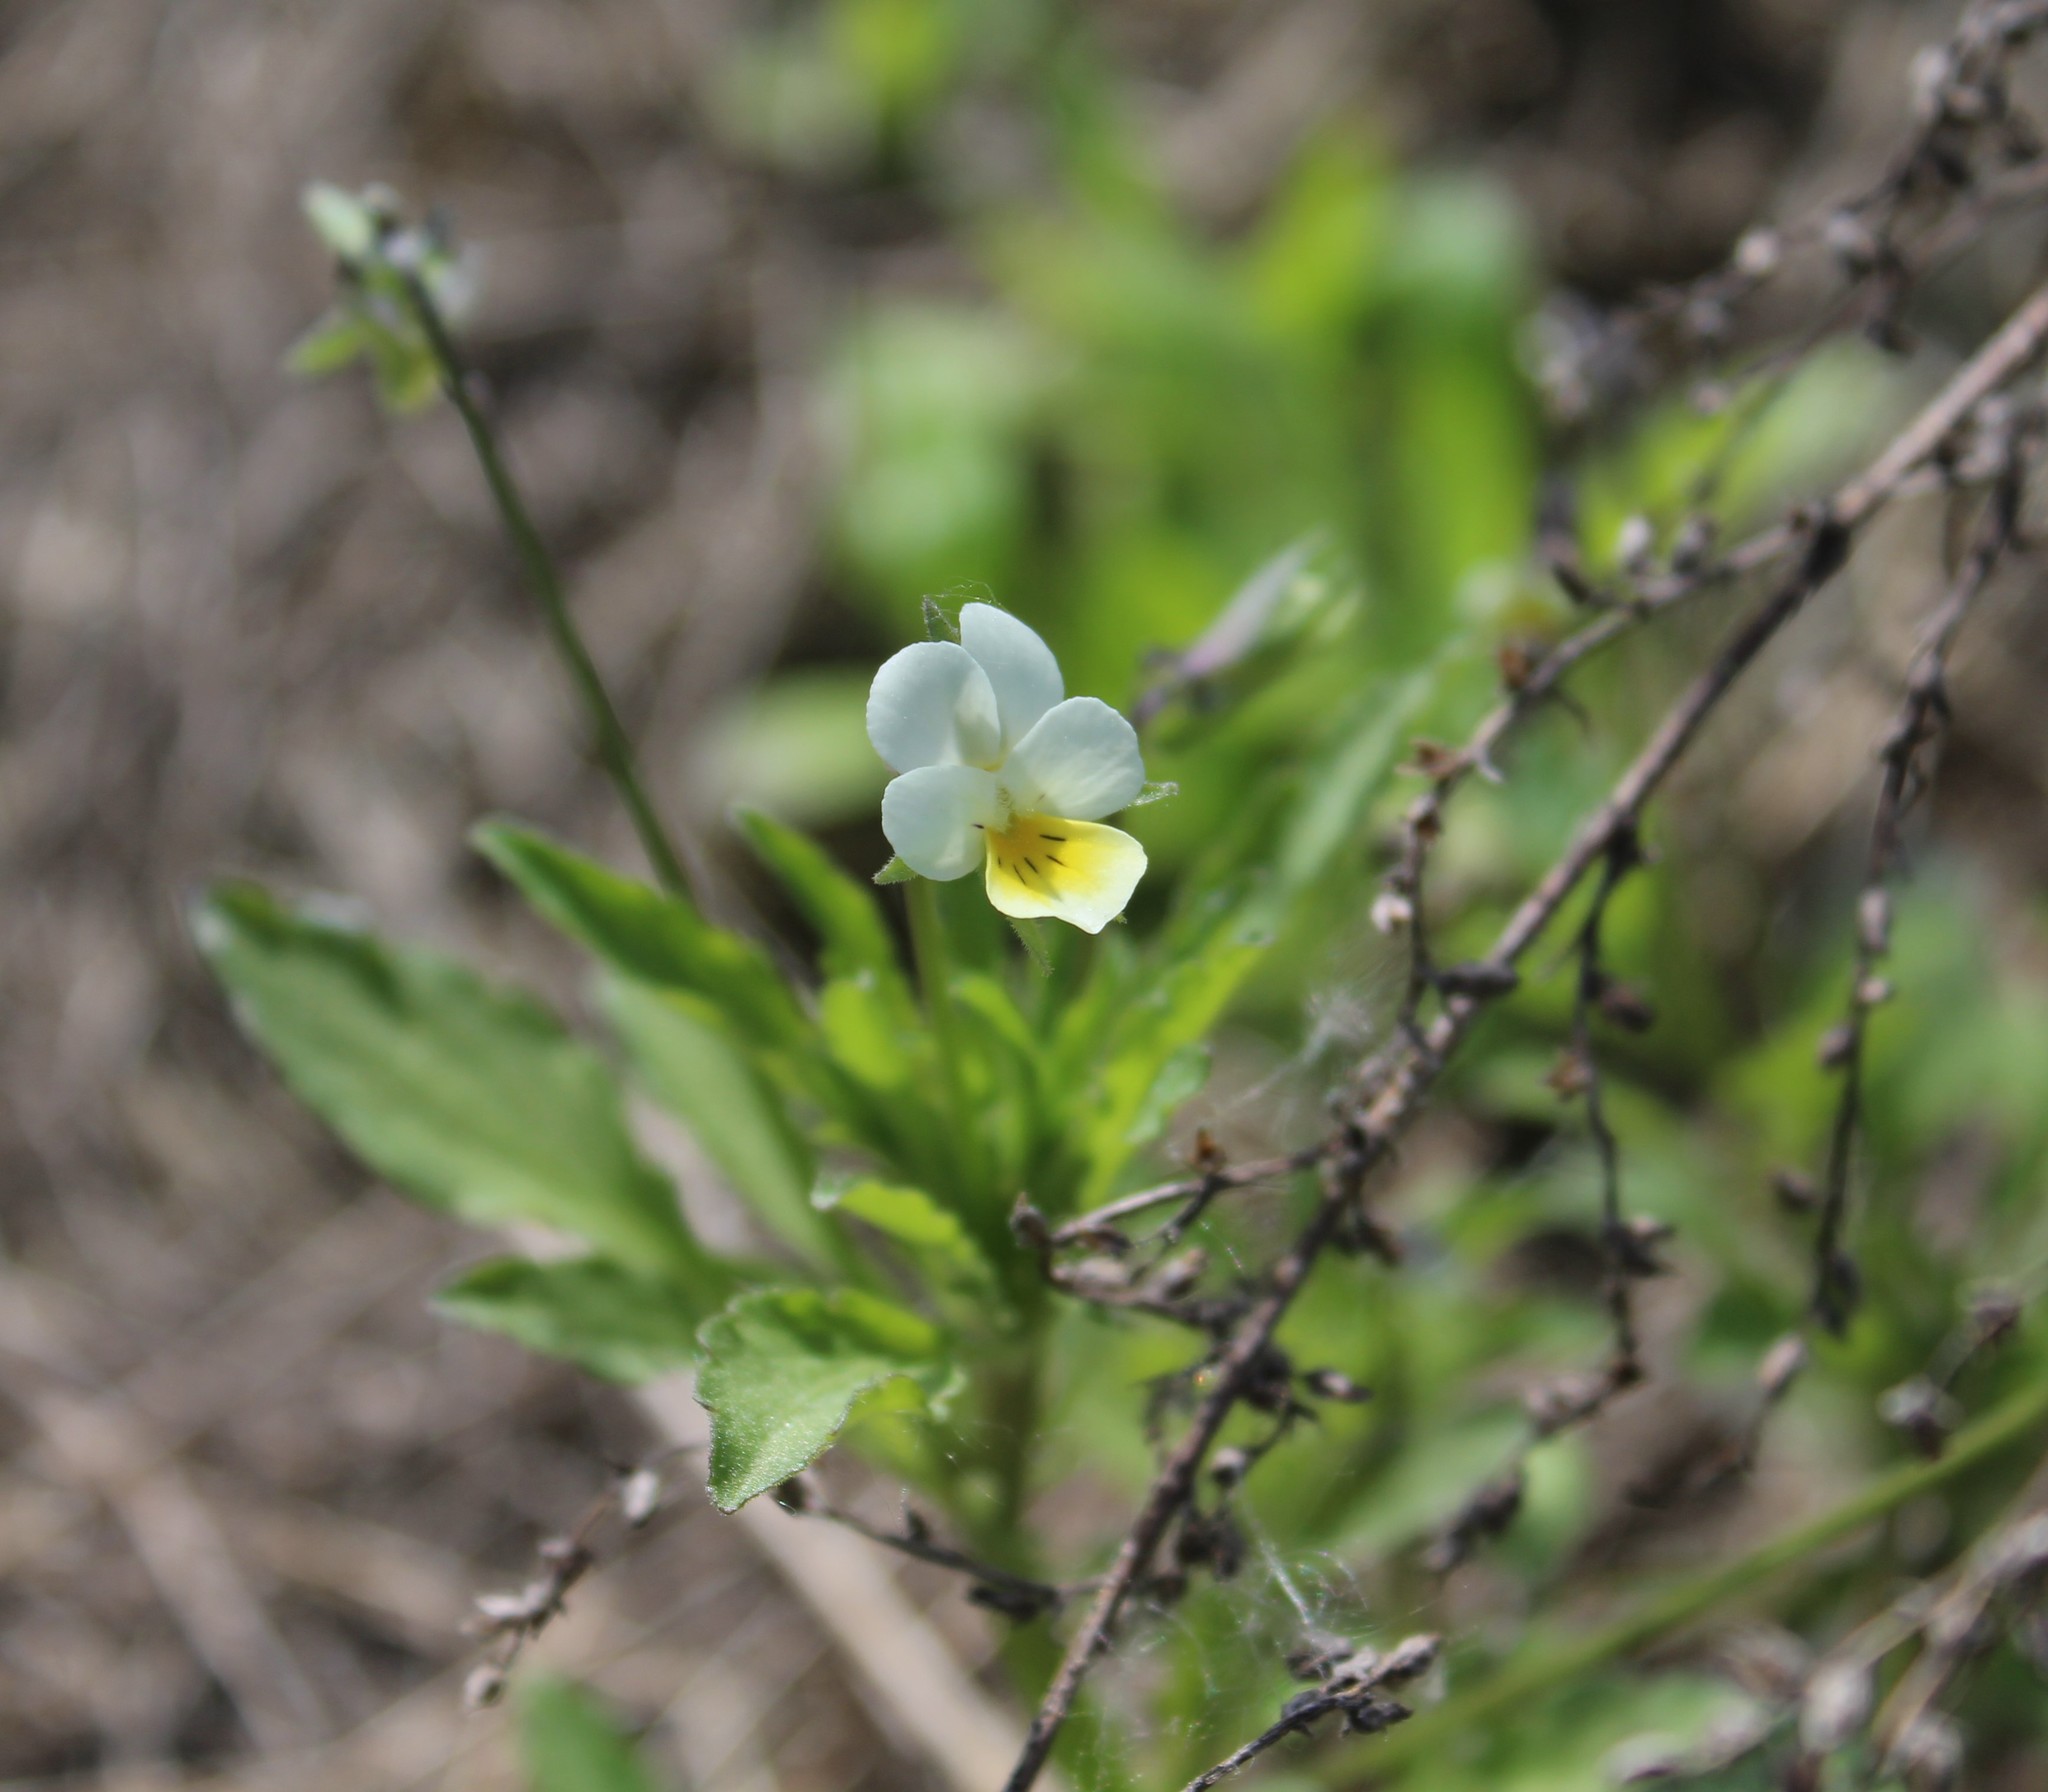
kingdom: Plantae
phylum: Tracheophyta
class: Magnoliopsida
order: Malpighiales
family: Violaceae
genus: Viola
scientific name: Viola arvensis
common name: Field pansy
